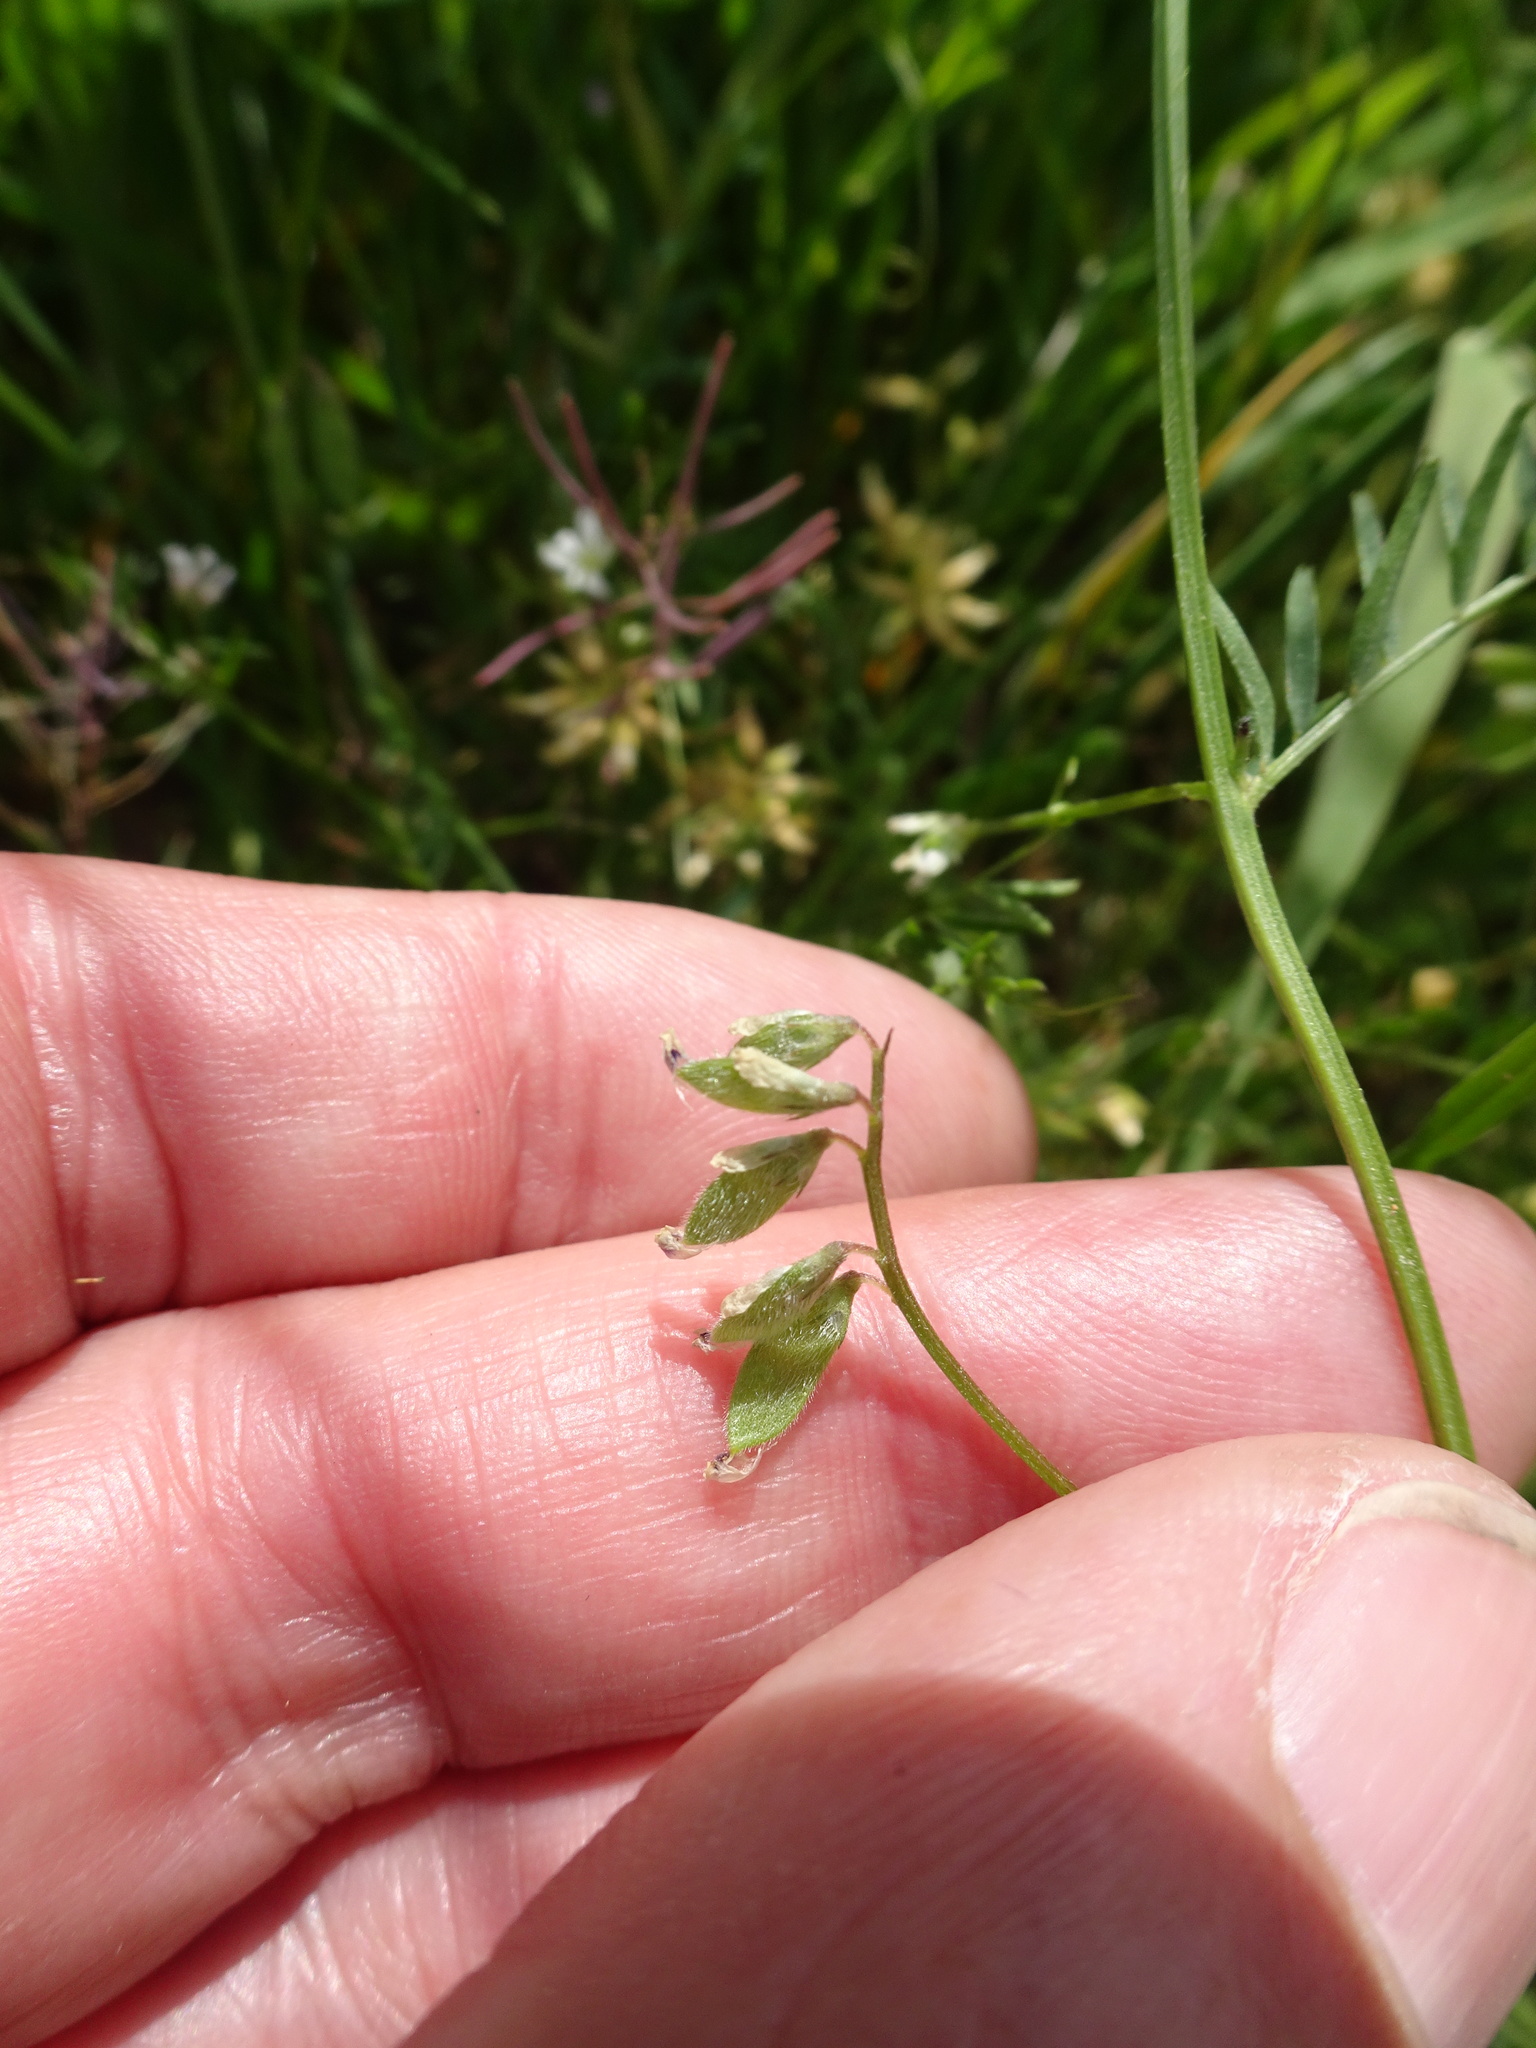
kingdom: Plantae
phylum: Tracheophyta
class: Magnoliopsida
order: Fabales
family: Fabaceae
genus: Vicia
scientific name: Vicia hirsuta
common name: Tiny vetch
